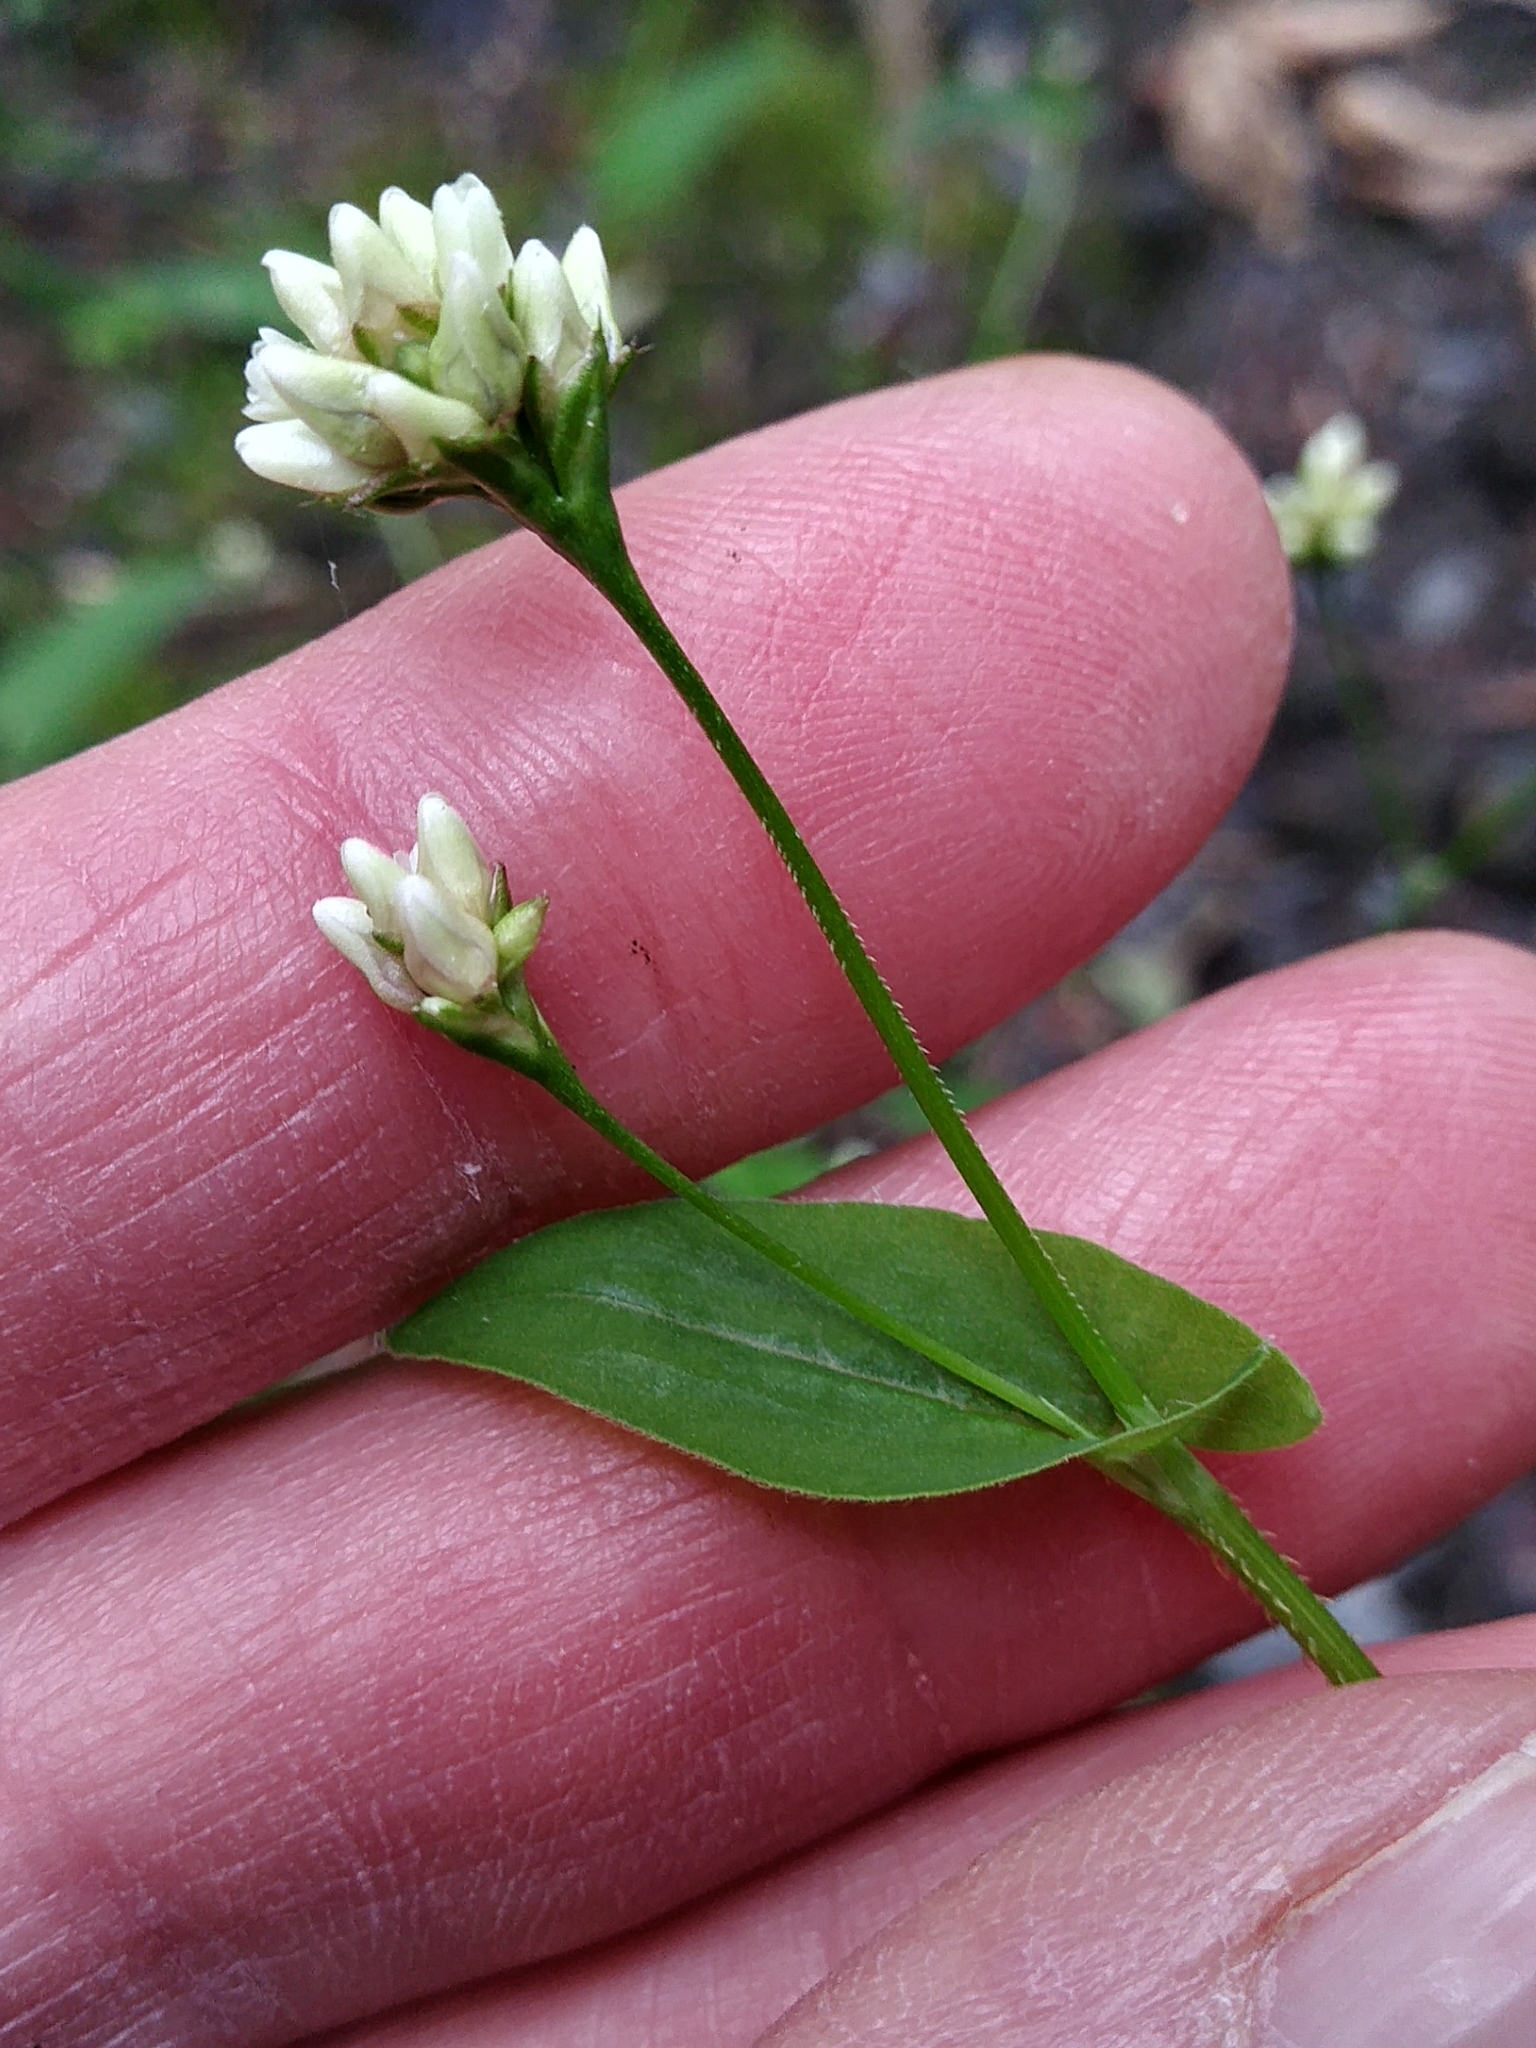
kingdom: Plantae
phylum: Tracheophyta
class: Magnoliopsida
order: Caryophyllales
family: Polygonaceae
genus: Persicaria
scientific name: Persicaria sagittata
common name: American tearthumb
